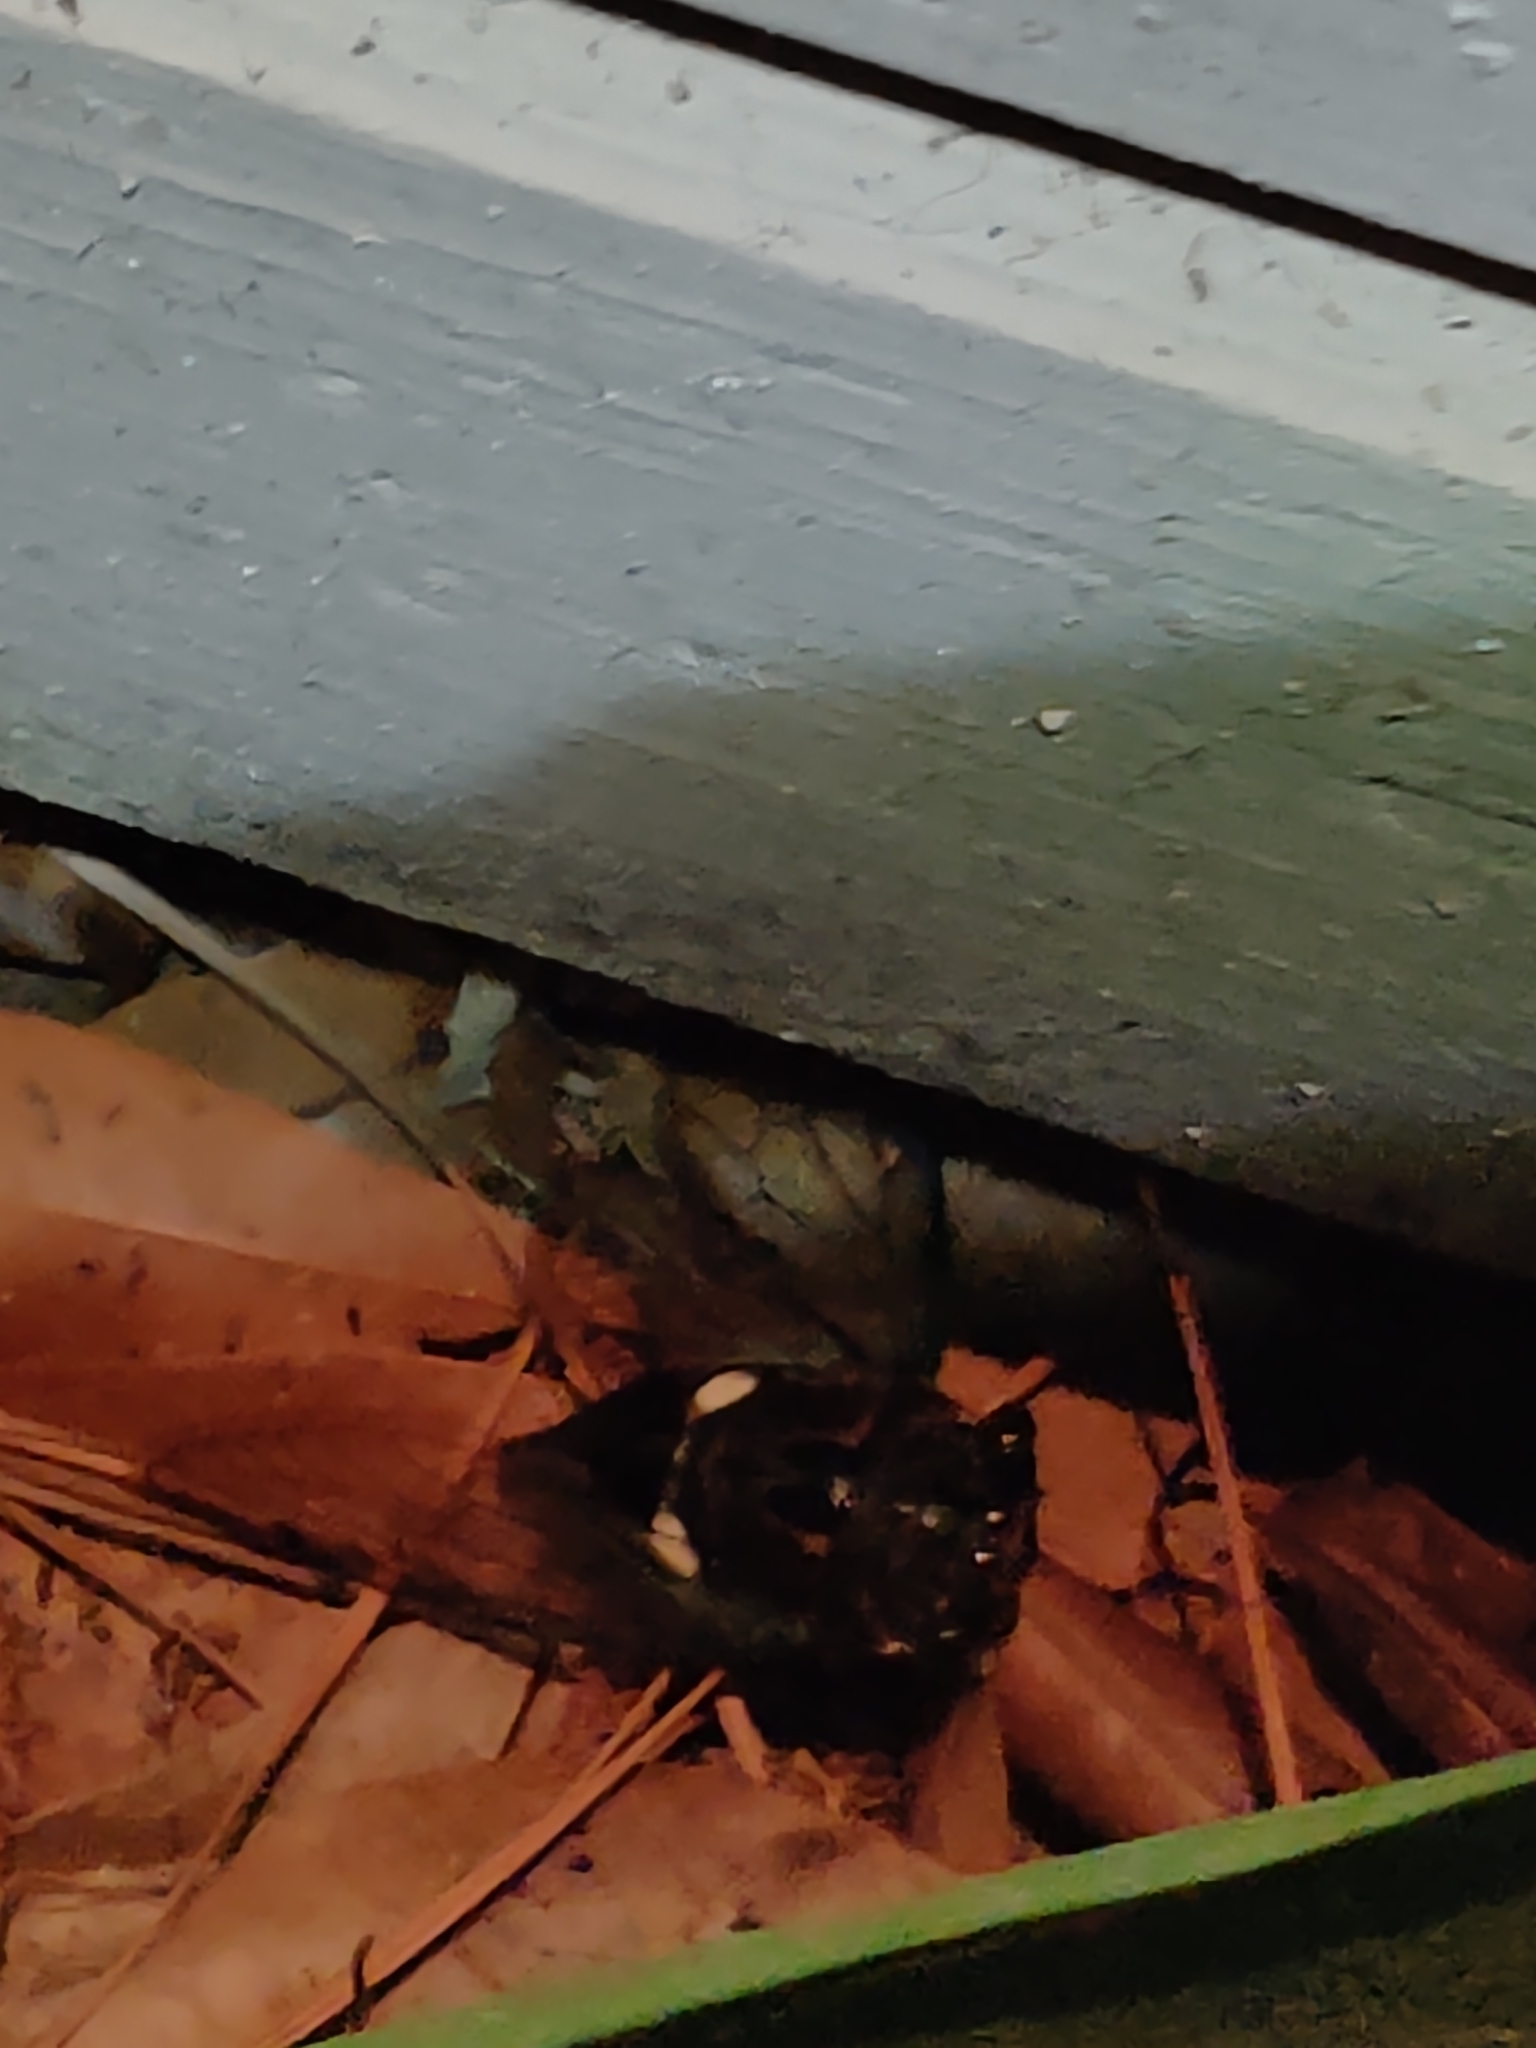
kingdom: Animalia
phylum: Arthropoda
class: Insecta
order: Hemiptera
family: Cicadidae
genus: Neotibicen
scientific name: Neotibicen tibicen
